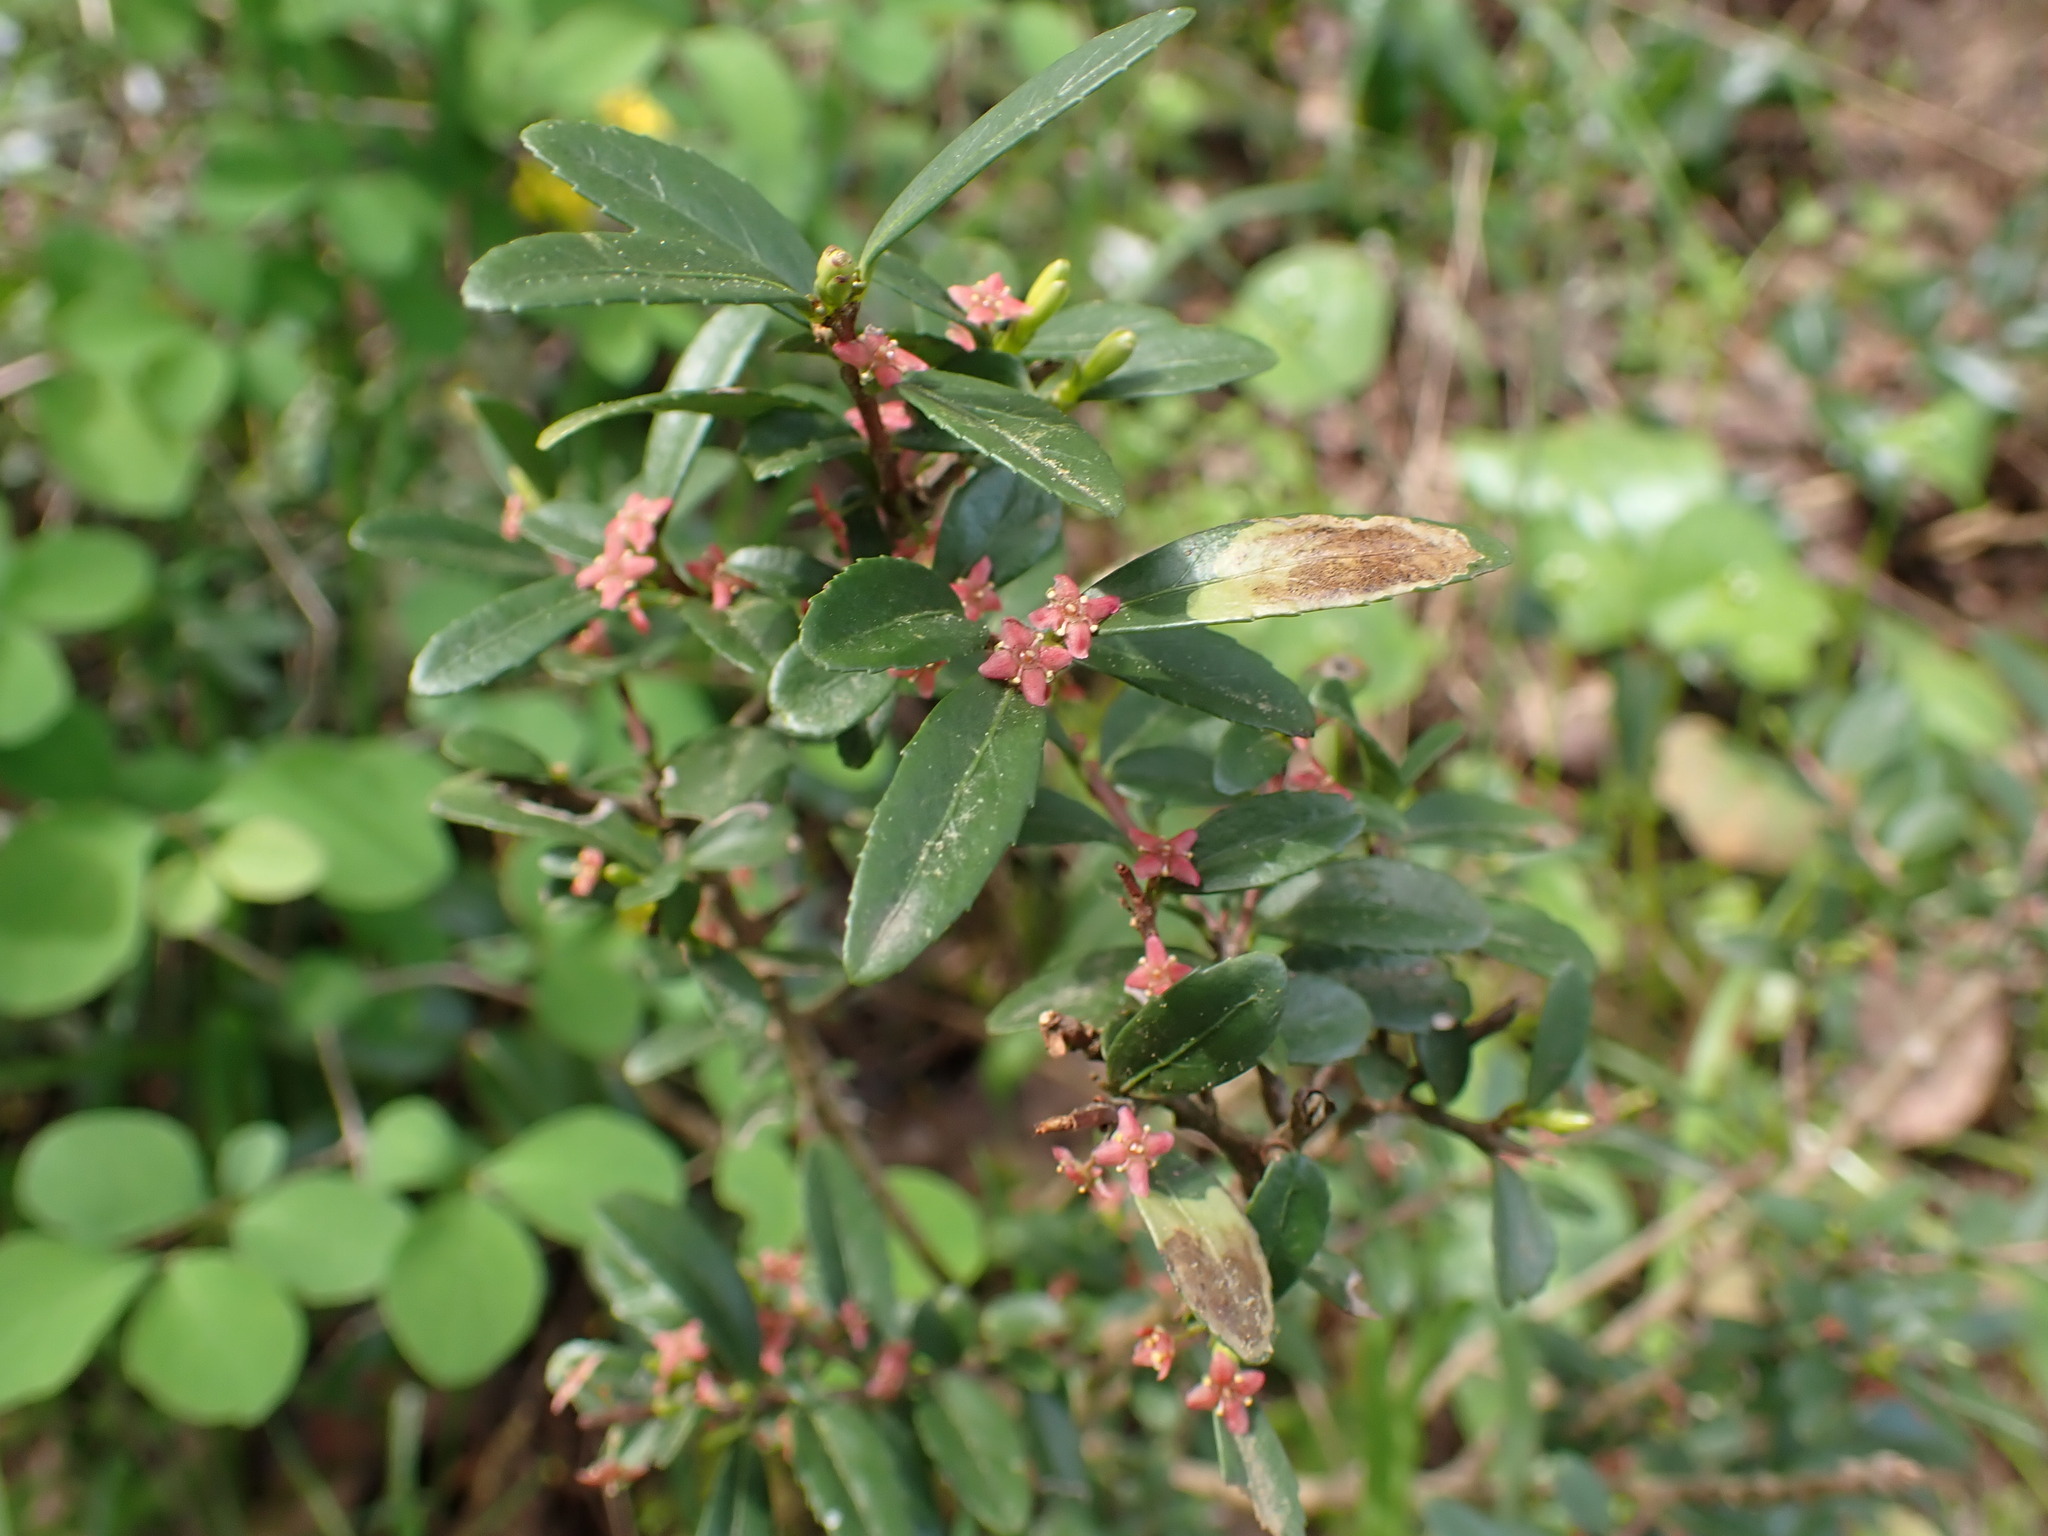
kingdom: Plantae
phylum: Tracheophyta
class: Magnoliopsida
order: Celastrales
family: Celastraceae
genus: Paxistima
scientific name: Paxistima myrsinites
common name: Mountain-lover
